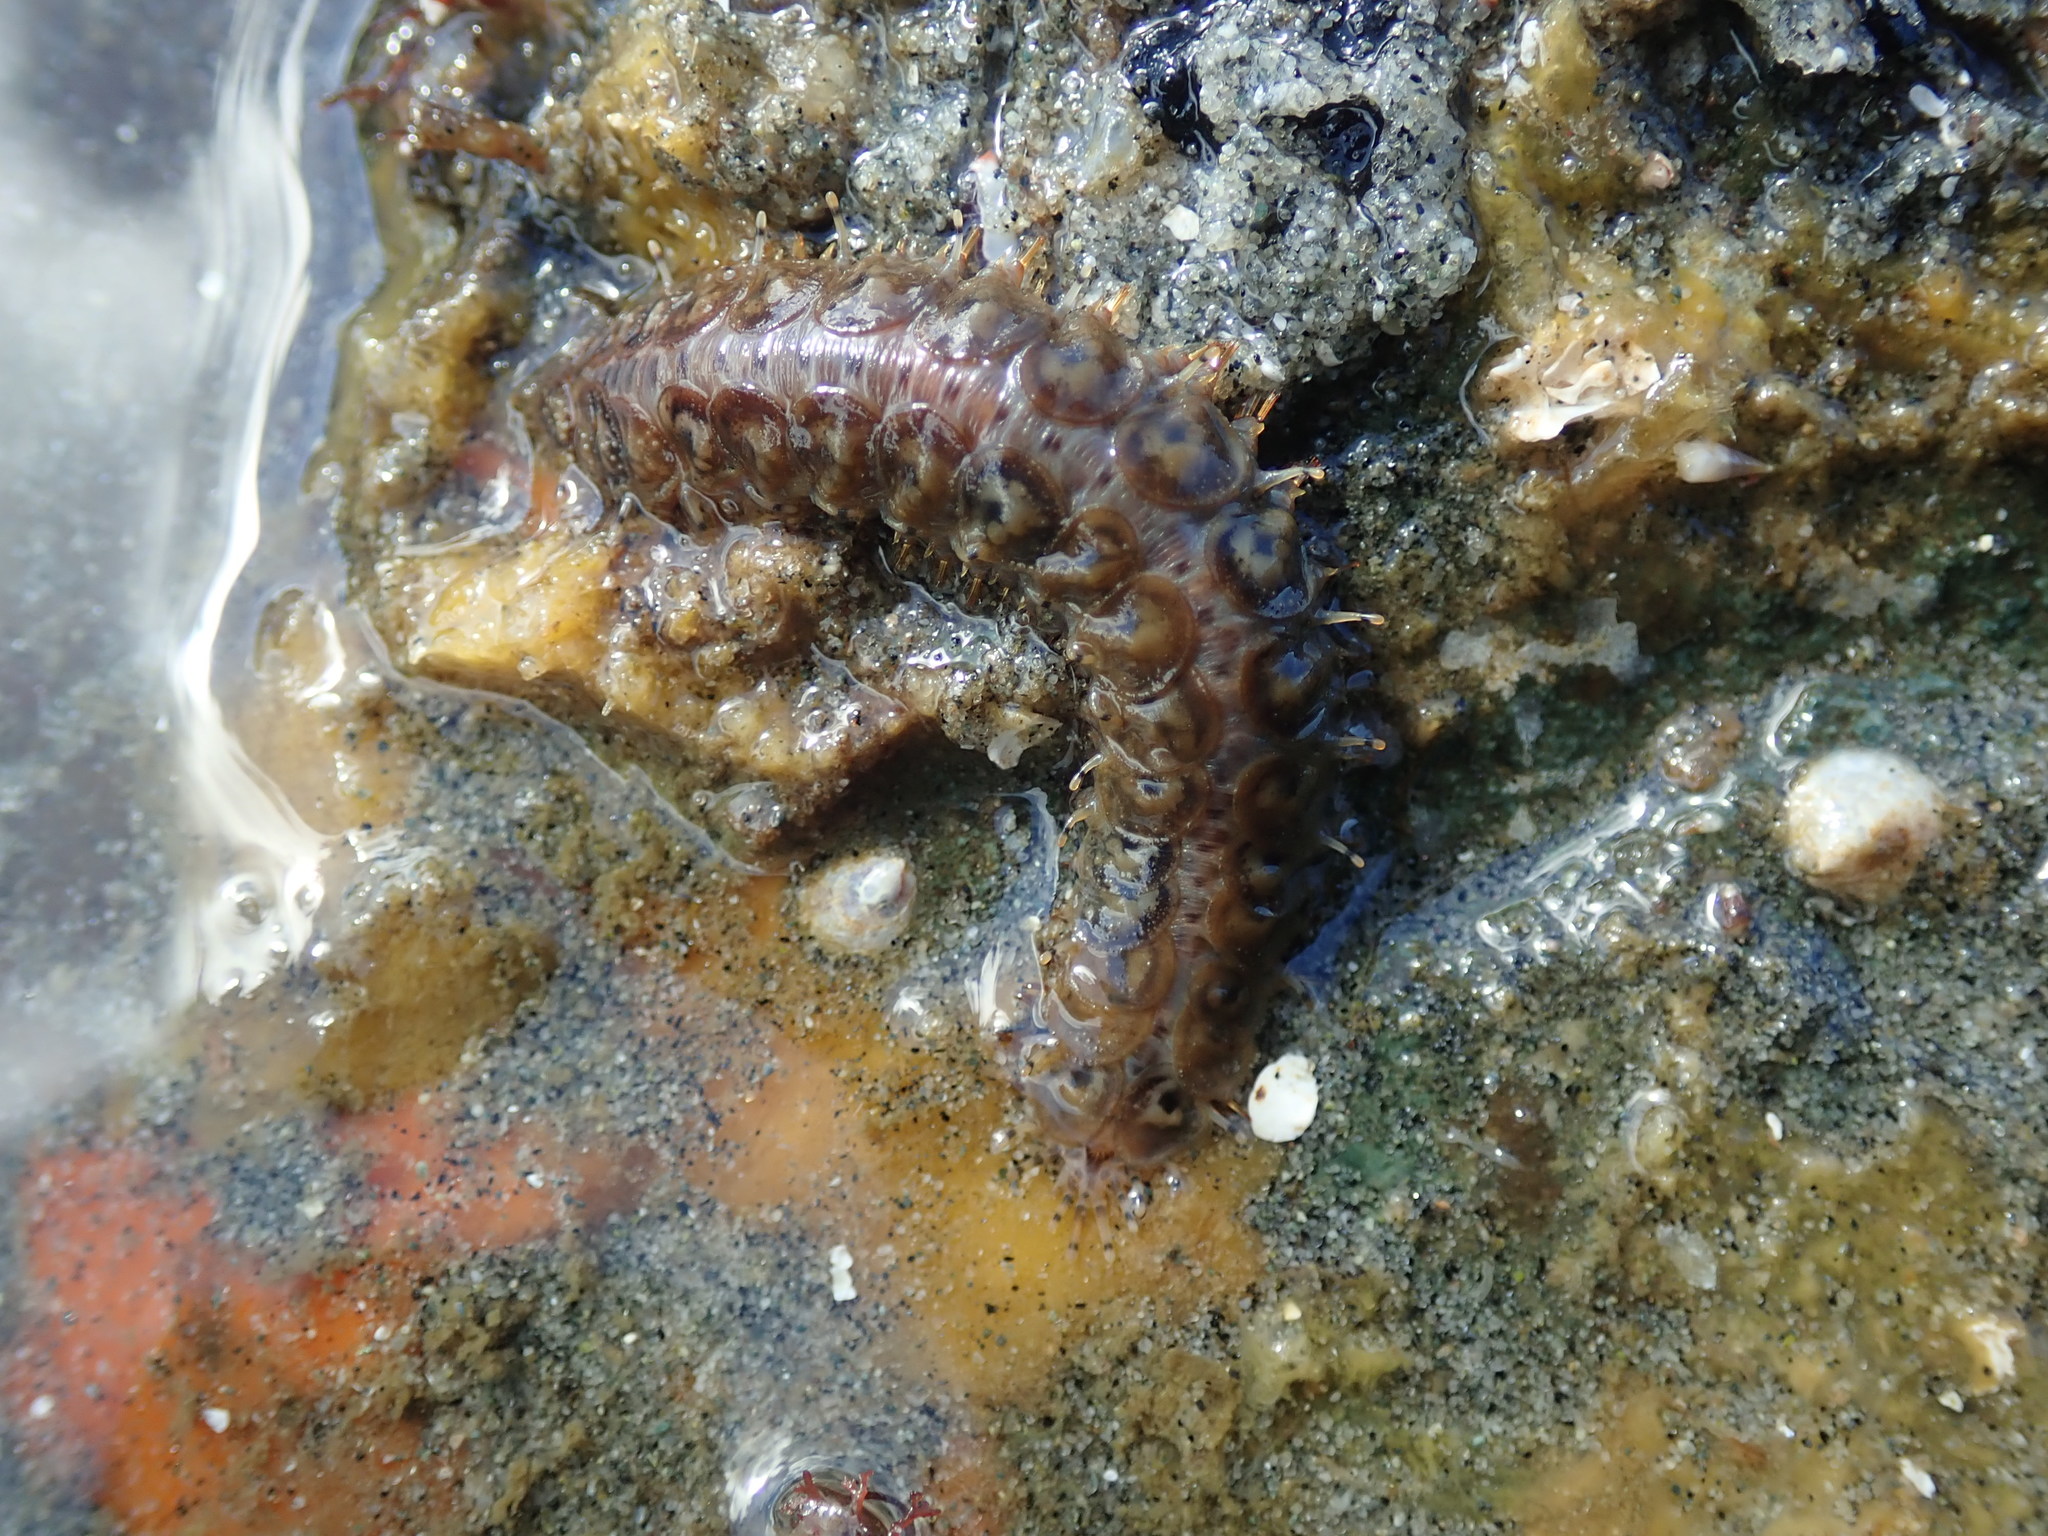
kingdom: Animalia
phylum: Annelida
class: Polychaeta
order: Phyllodocida
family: Polynoidae
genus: Halosydna
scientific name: Halosydna brevisetosa
